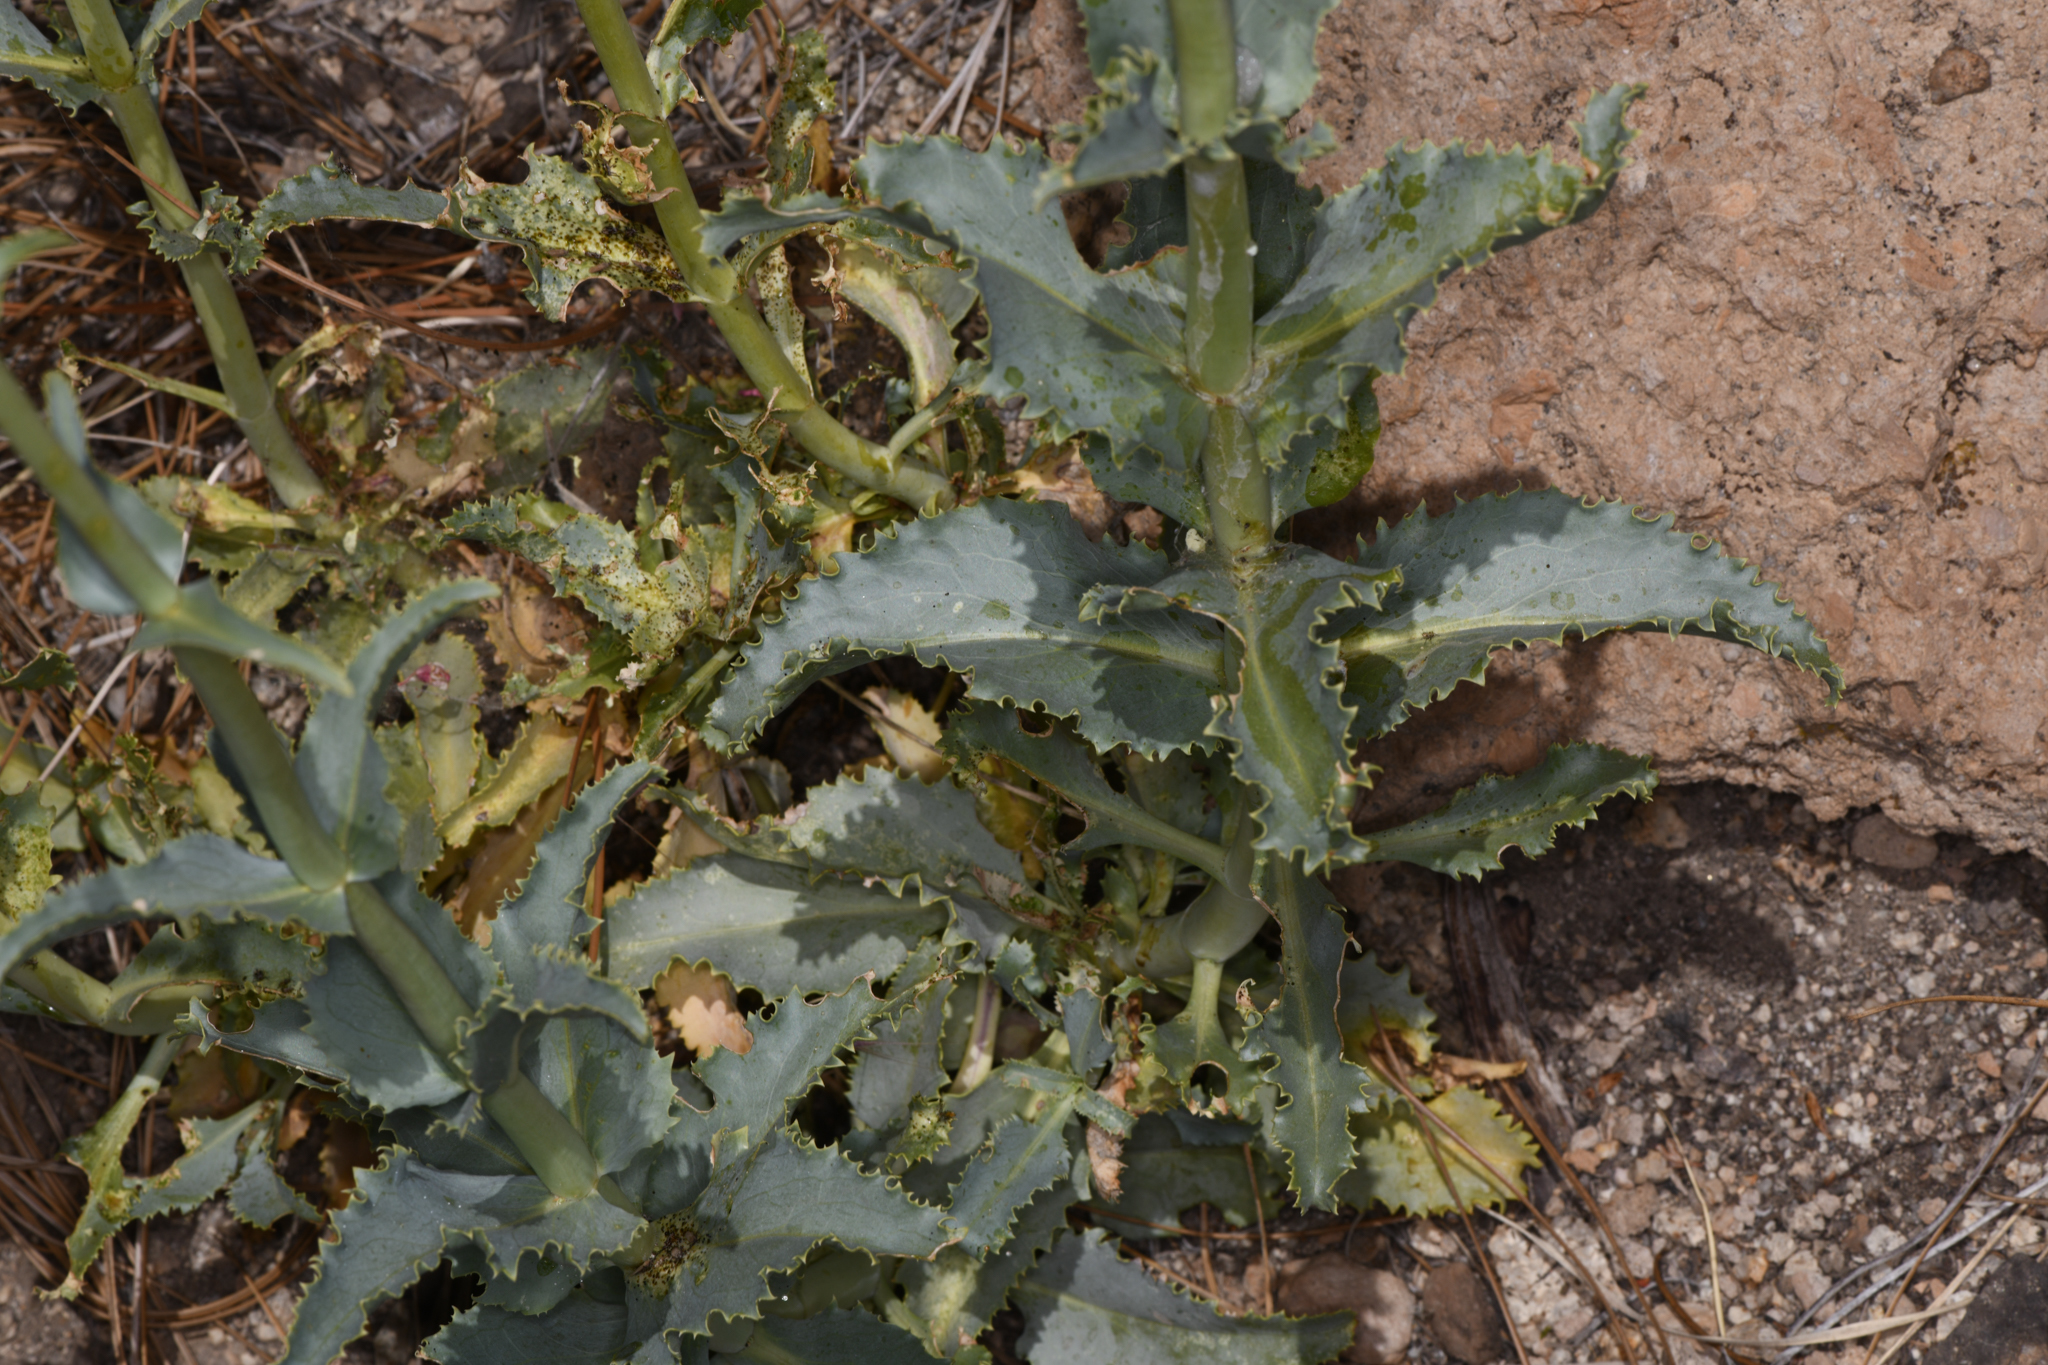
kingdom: Plantae
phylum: Tracheophyta
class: Magnoliopsida
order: Lamiales
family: Plantaginaceae
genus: Penstemon
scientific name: Penstemon floridus
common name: Panamint penstemon
